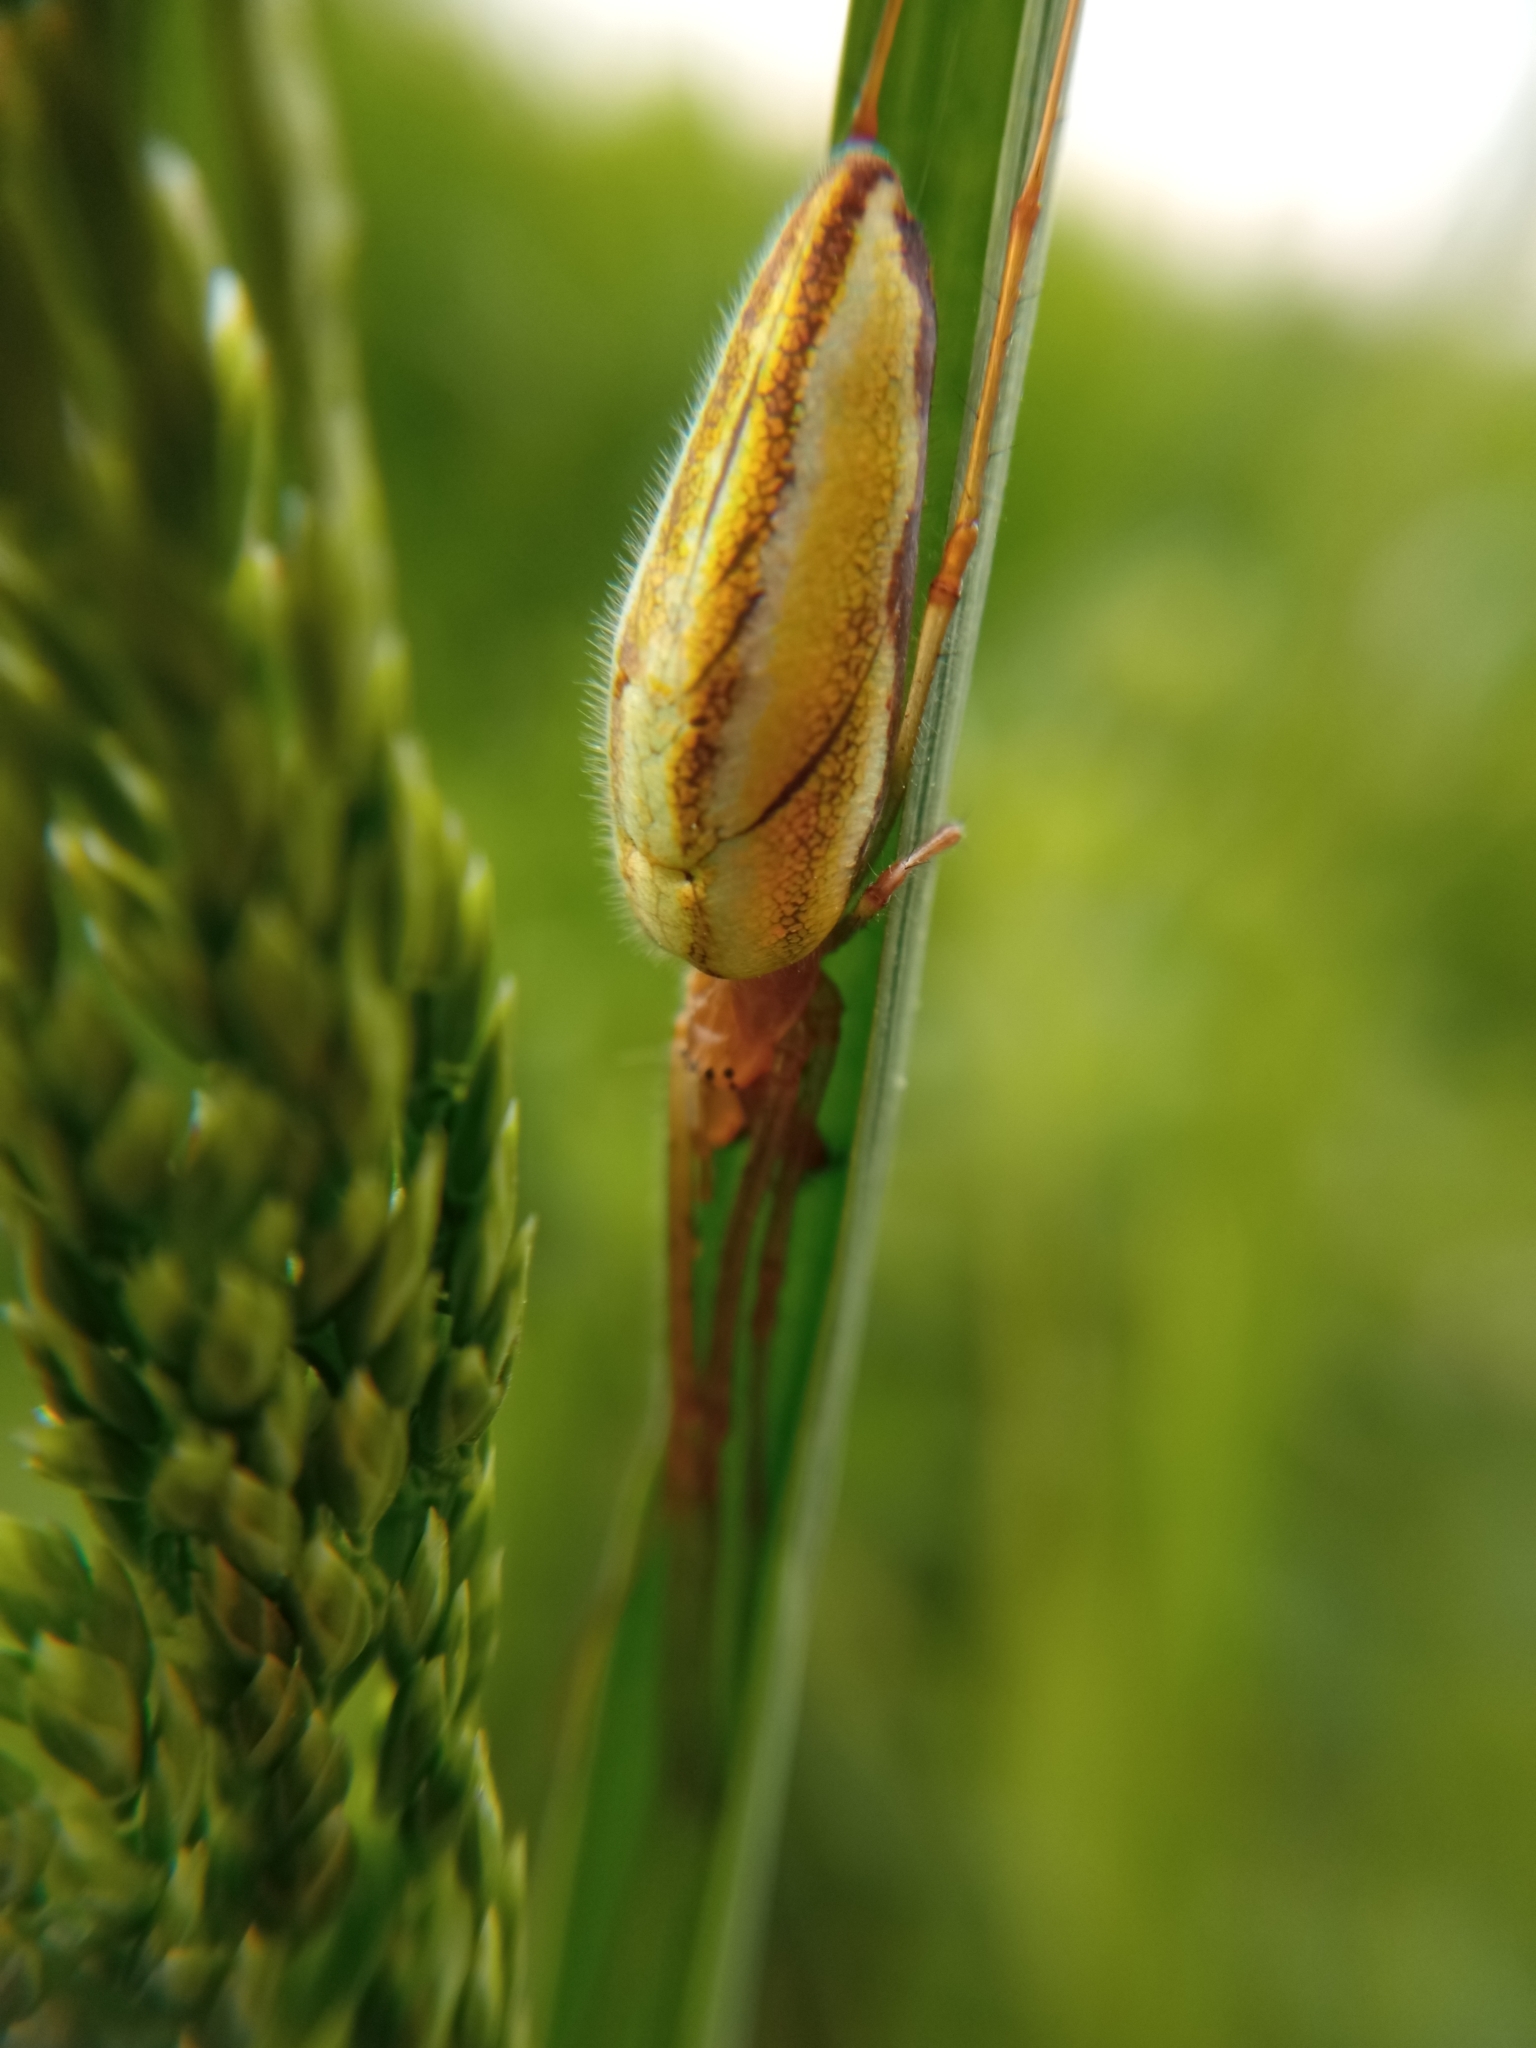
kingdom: Animalia
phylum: Arthropoda
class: Arachnida
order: Araneae
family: Tetragnathidae
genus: Tetragnatha
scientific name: Tetragnatha
